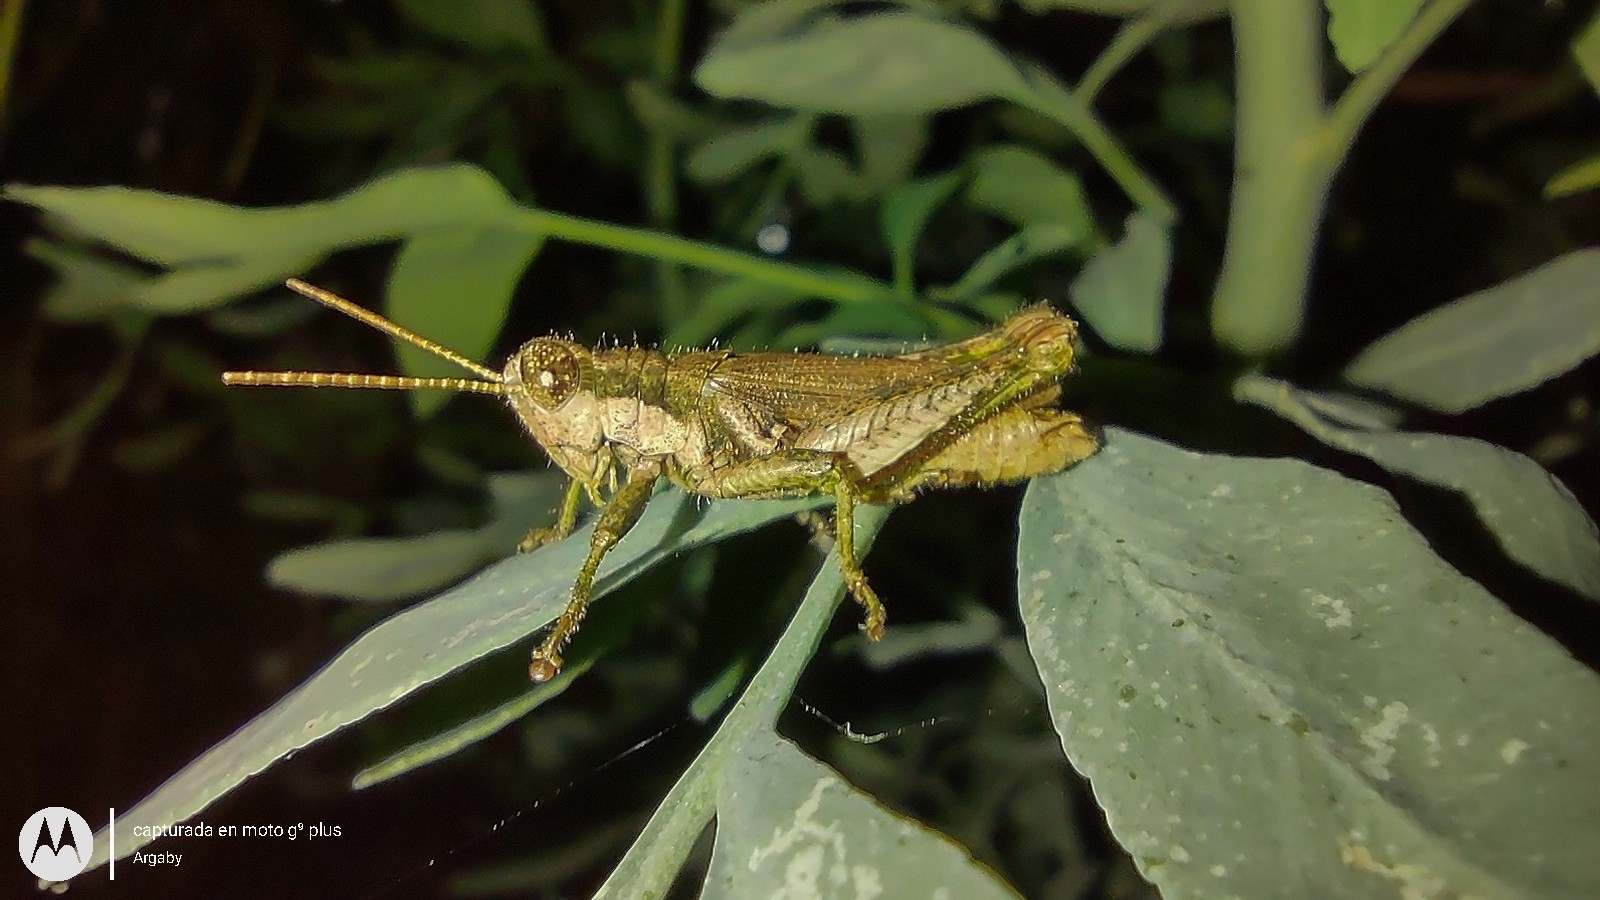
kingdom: Animalia
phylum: Arthropoda
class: Insecta
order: Orthoptera
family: Acrididae
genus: Ronderosia
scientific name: Ronderosia bergii
